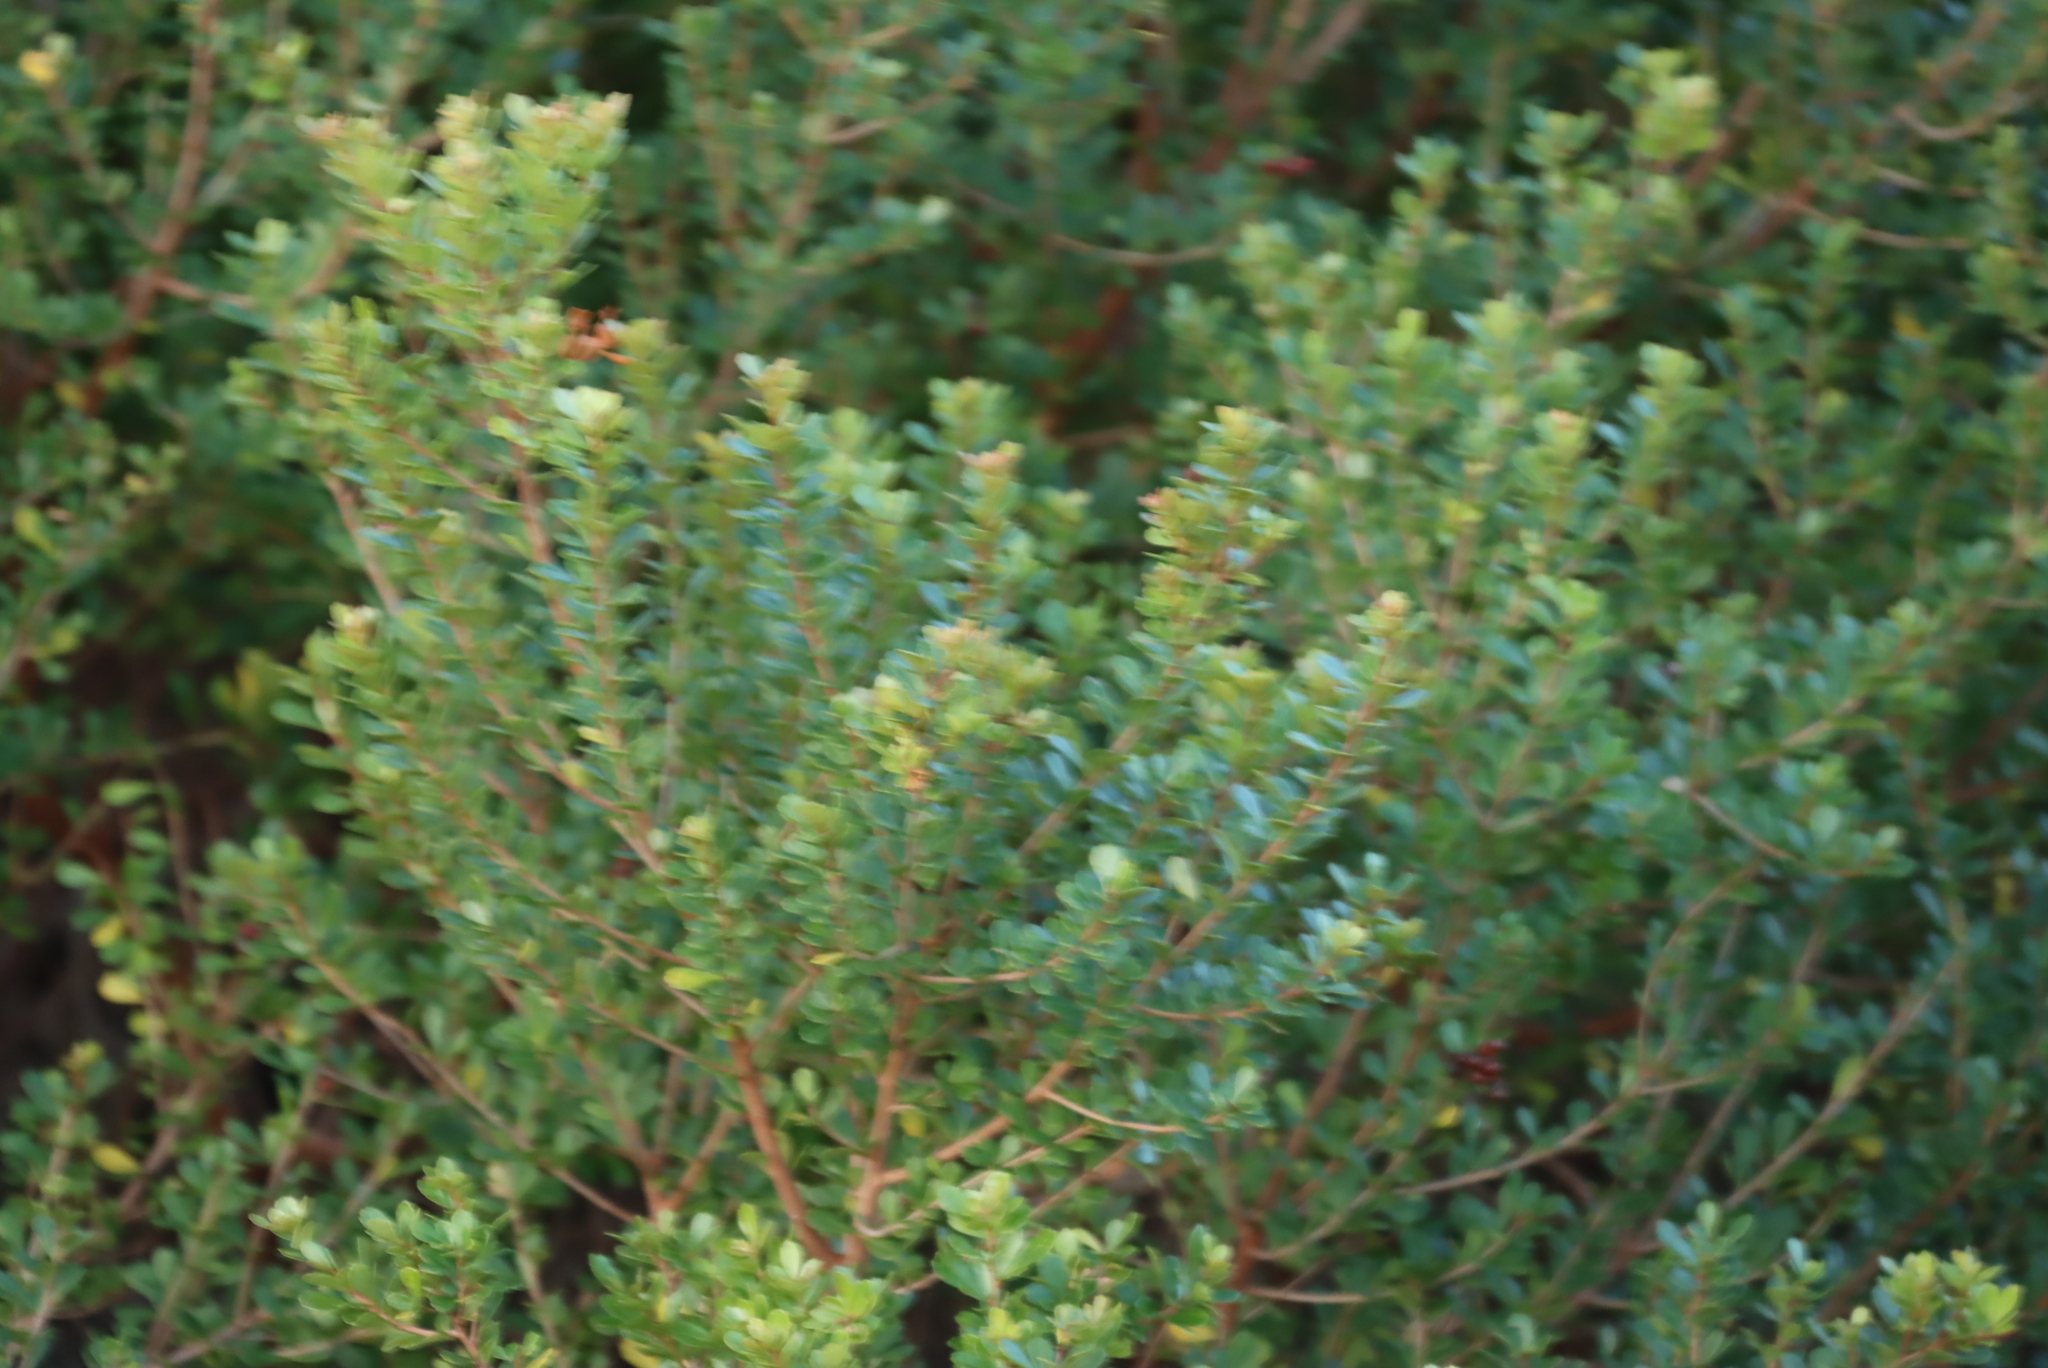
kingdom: Plantae
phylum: Tracheophyta
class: Magnoliopsida
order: Sapindales
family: Anacardiaceae
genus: Searsia
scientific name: Searsia crenata
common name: Crowberry
